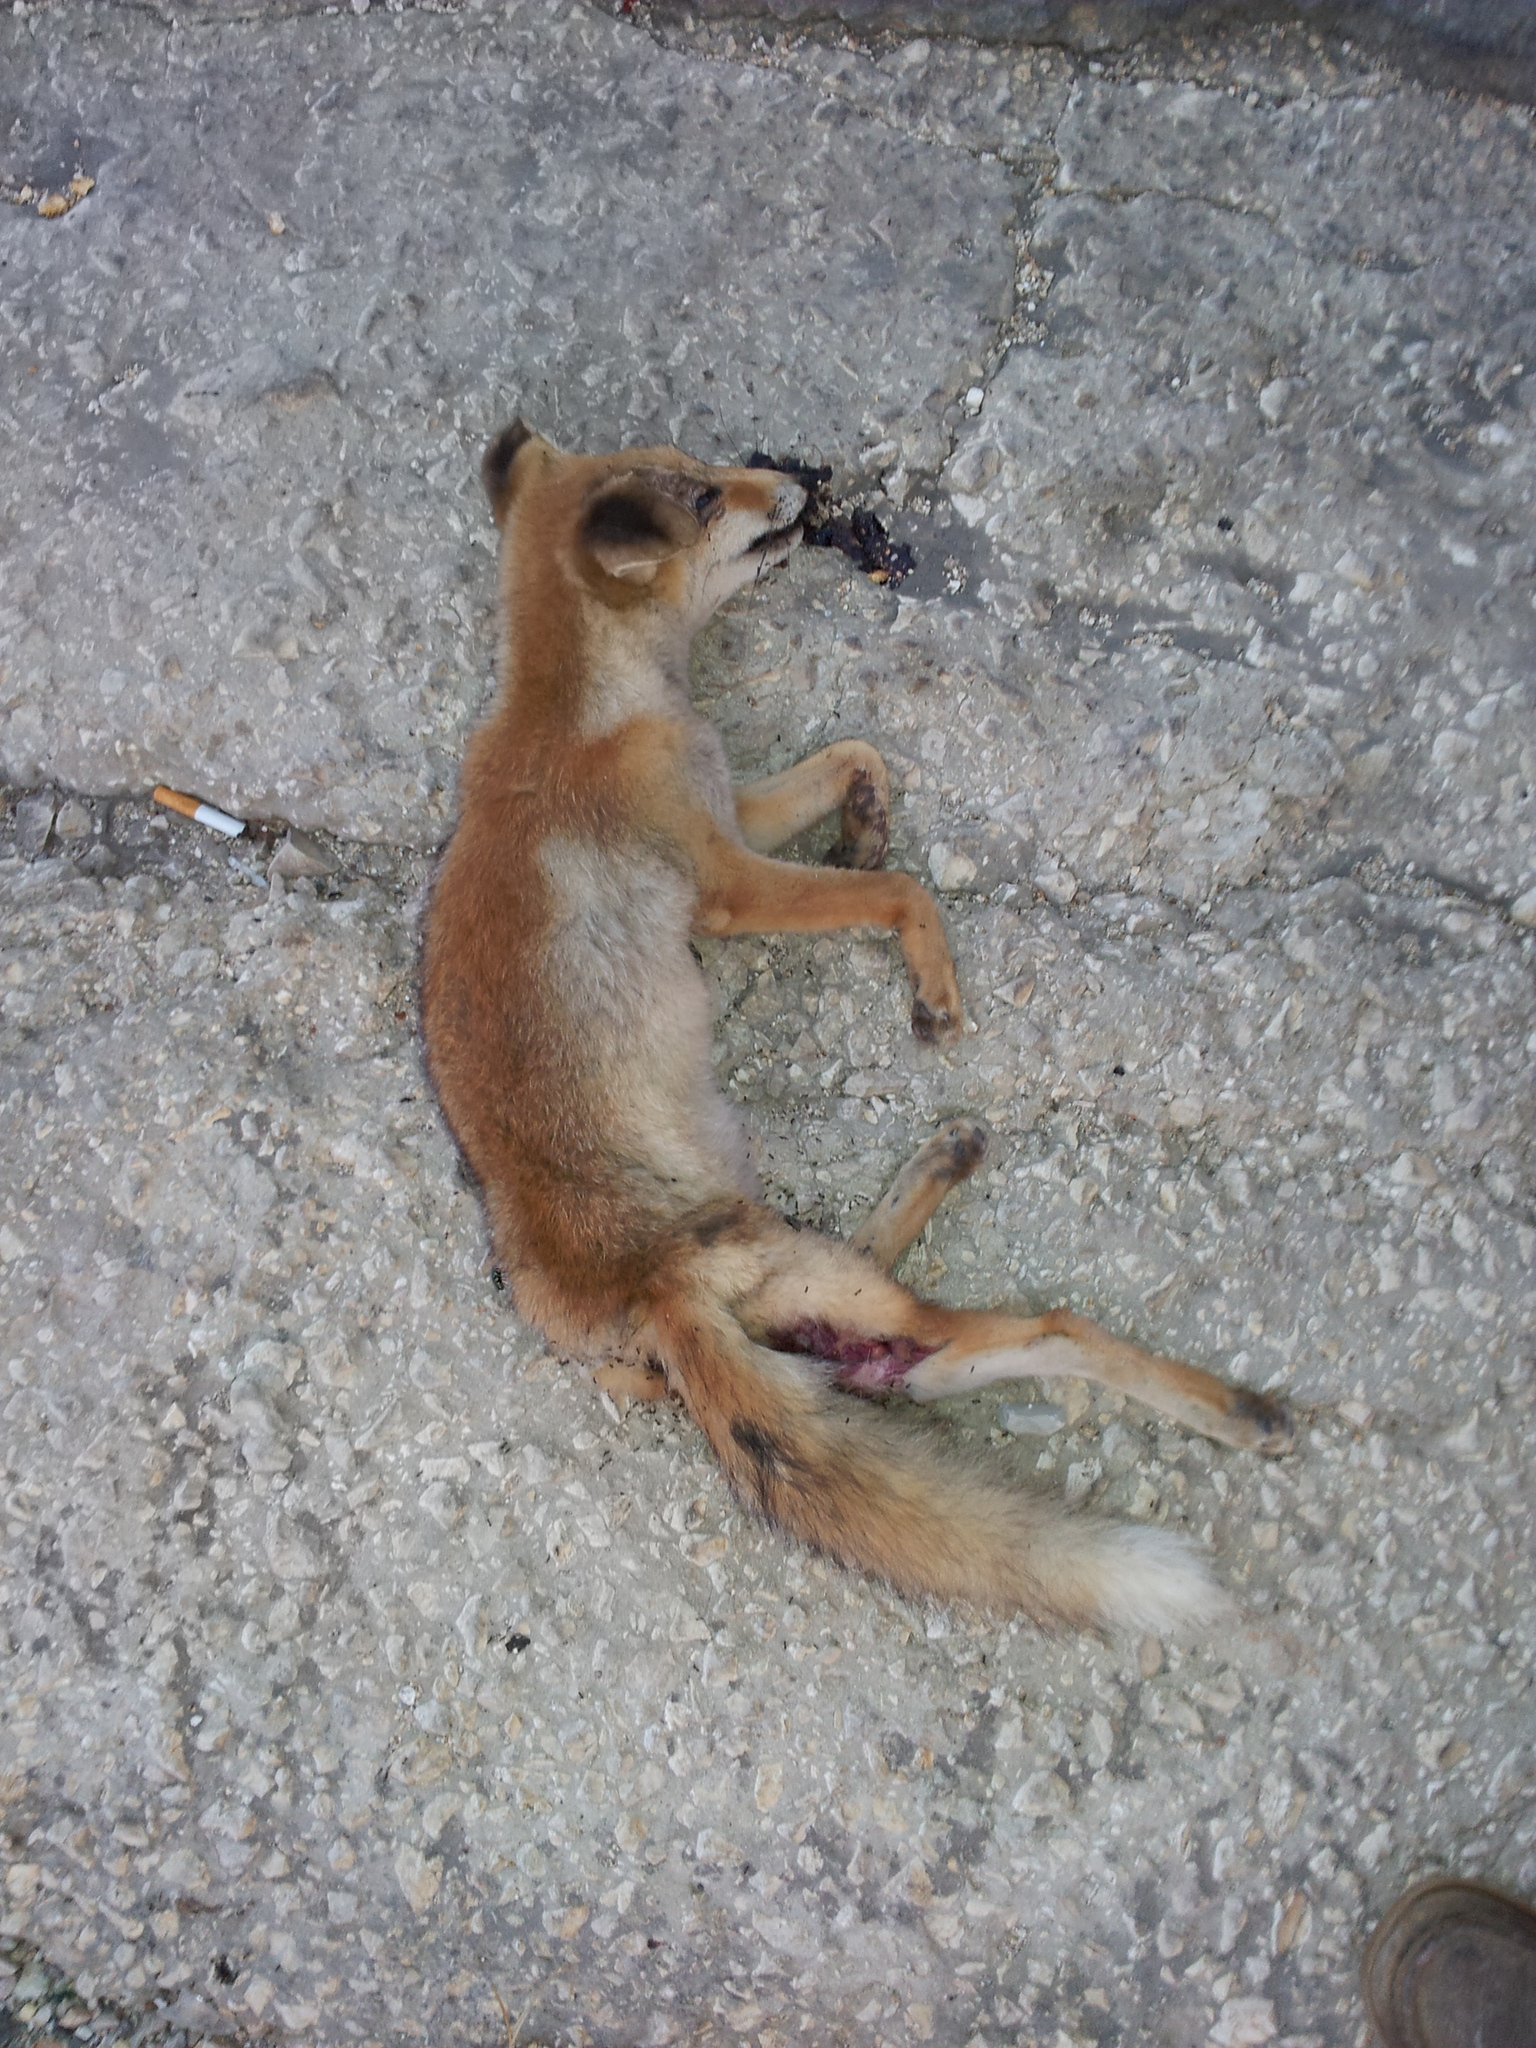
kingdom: Animalia
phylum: Chordata
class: Mammalia
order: Carnivora
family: Canidae
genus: Vulpes
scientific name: Vulpes vulpes
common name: Red fox
